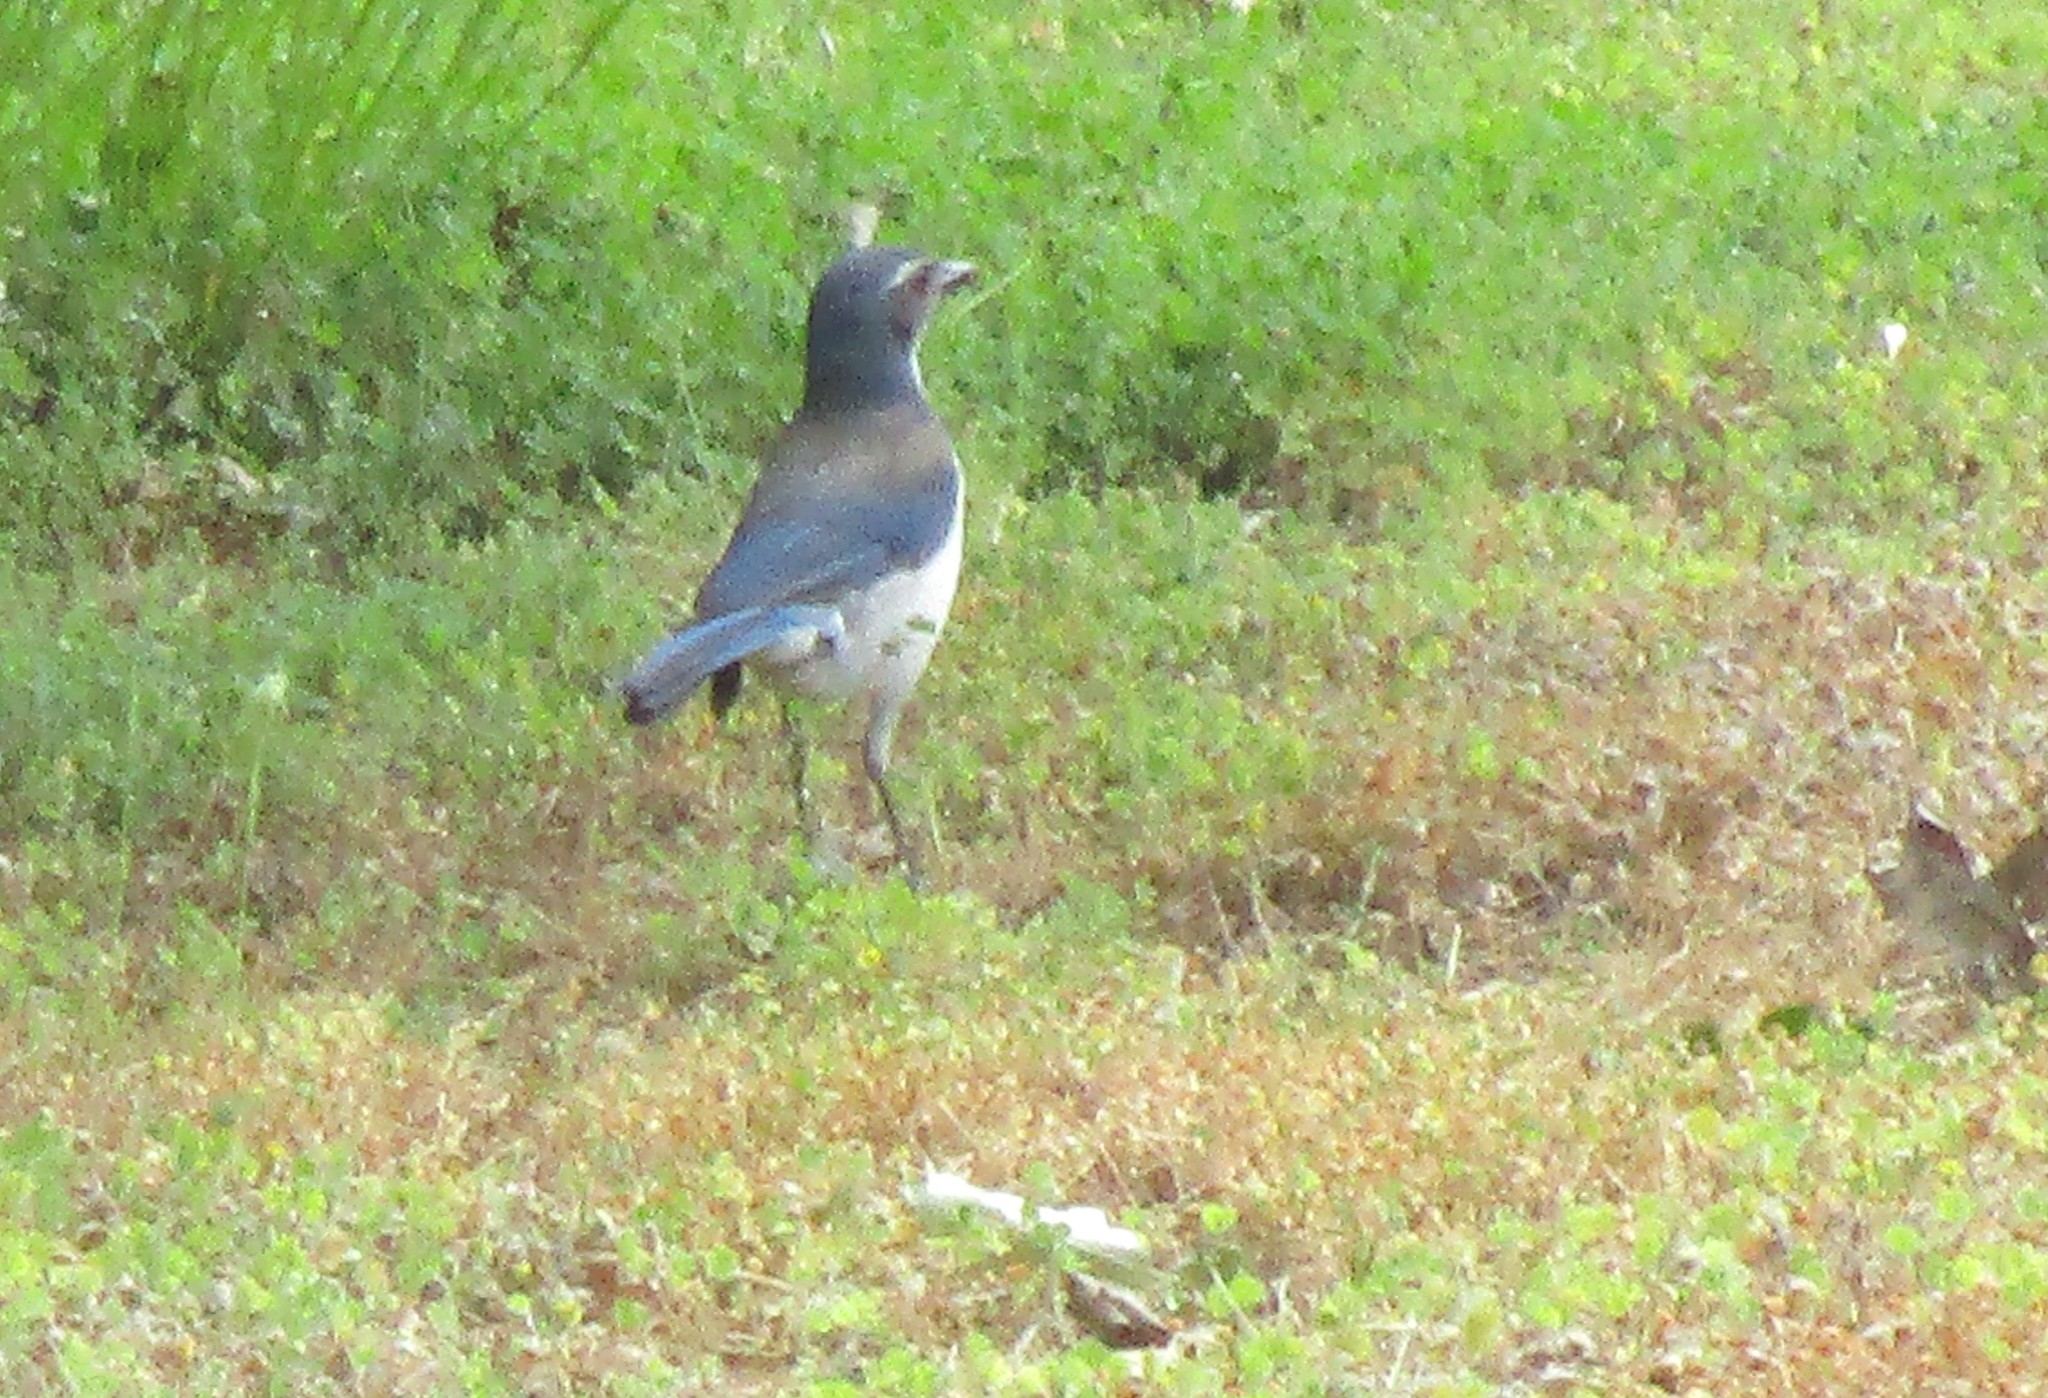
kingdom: Animalia
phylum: Chordata
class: Aves
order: Passeriformes
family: Corvidae
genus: Aphelocoma
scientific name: Aphelocoma californica
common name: California scrub-jay
